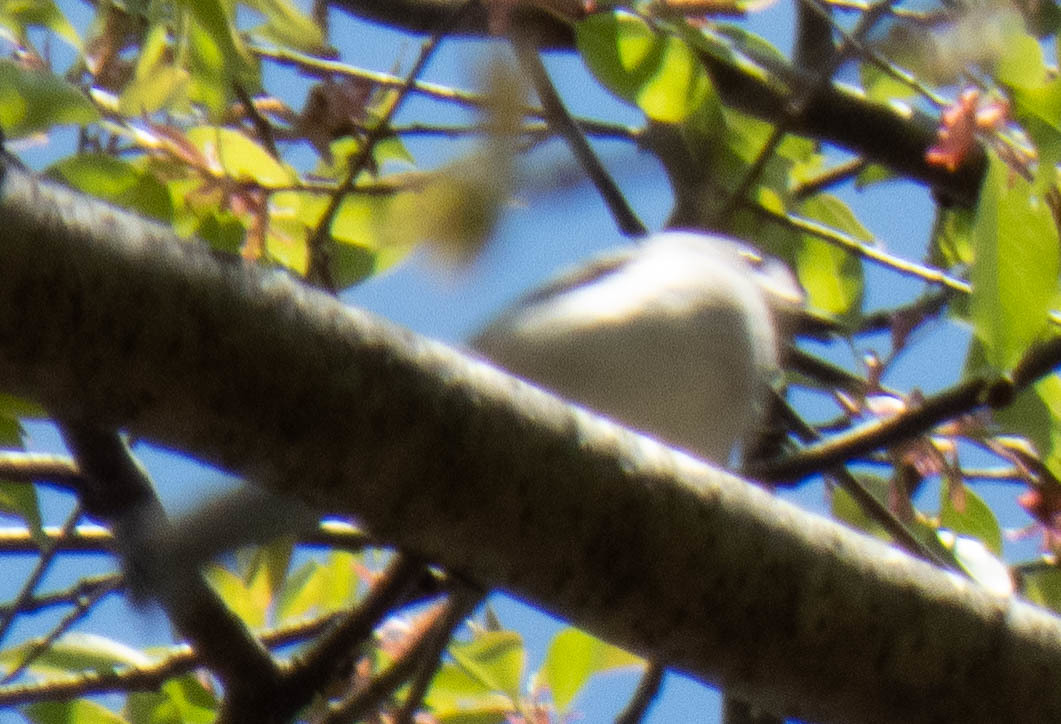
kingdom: Animalia
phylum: Chordata
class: Aves
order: Passeriformes
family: Paridae
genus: Baeolophus
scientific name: Baeolophus bicolor
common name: Tufted titmouse
